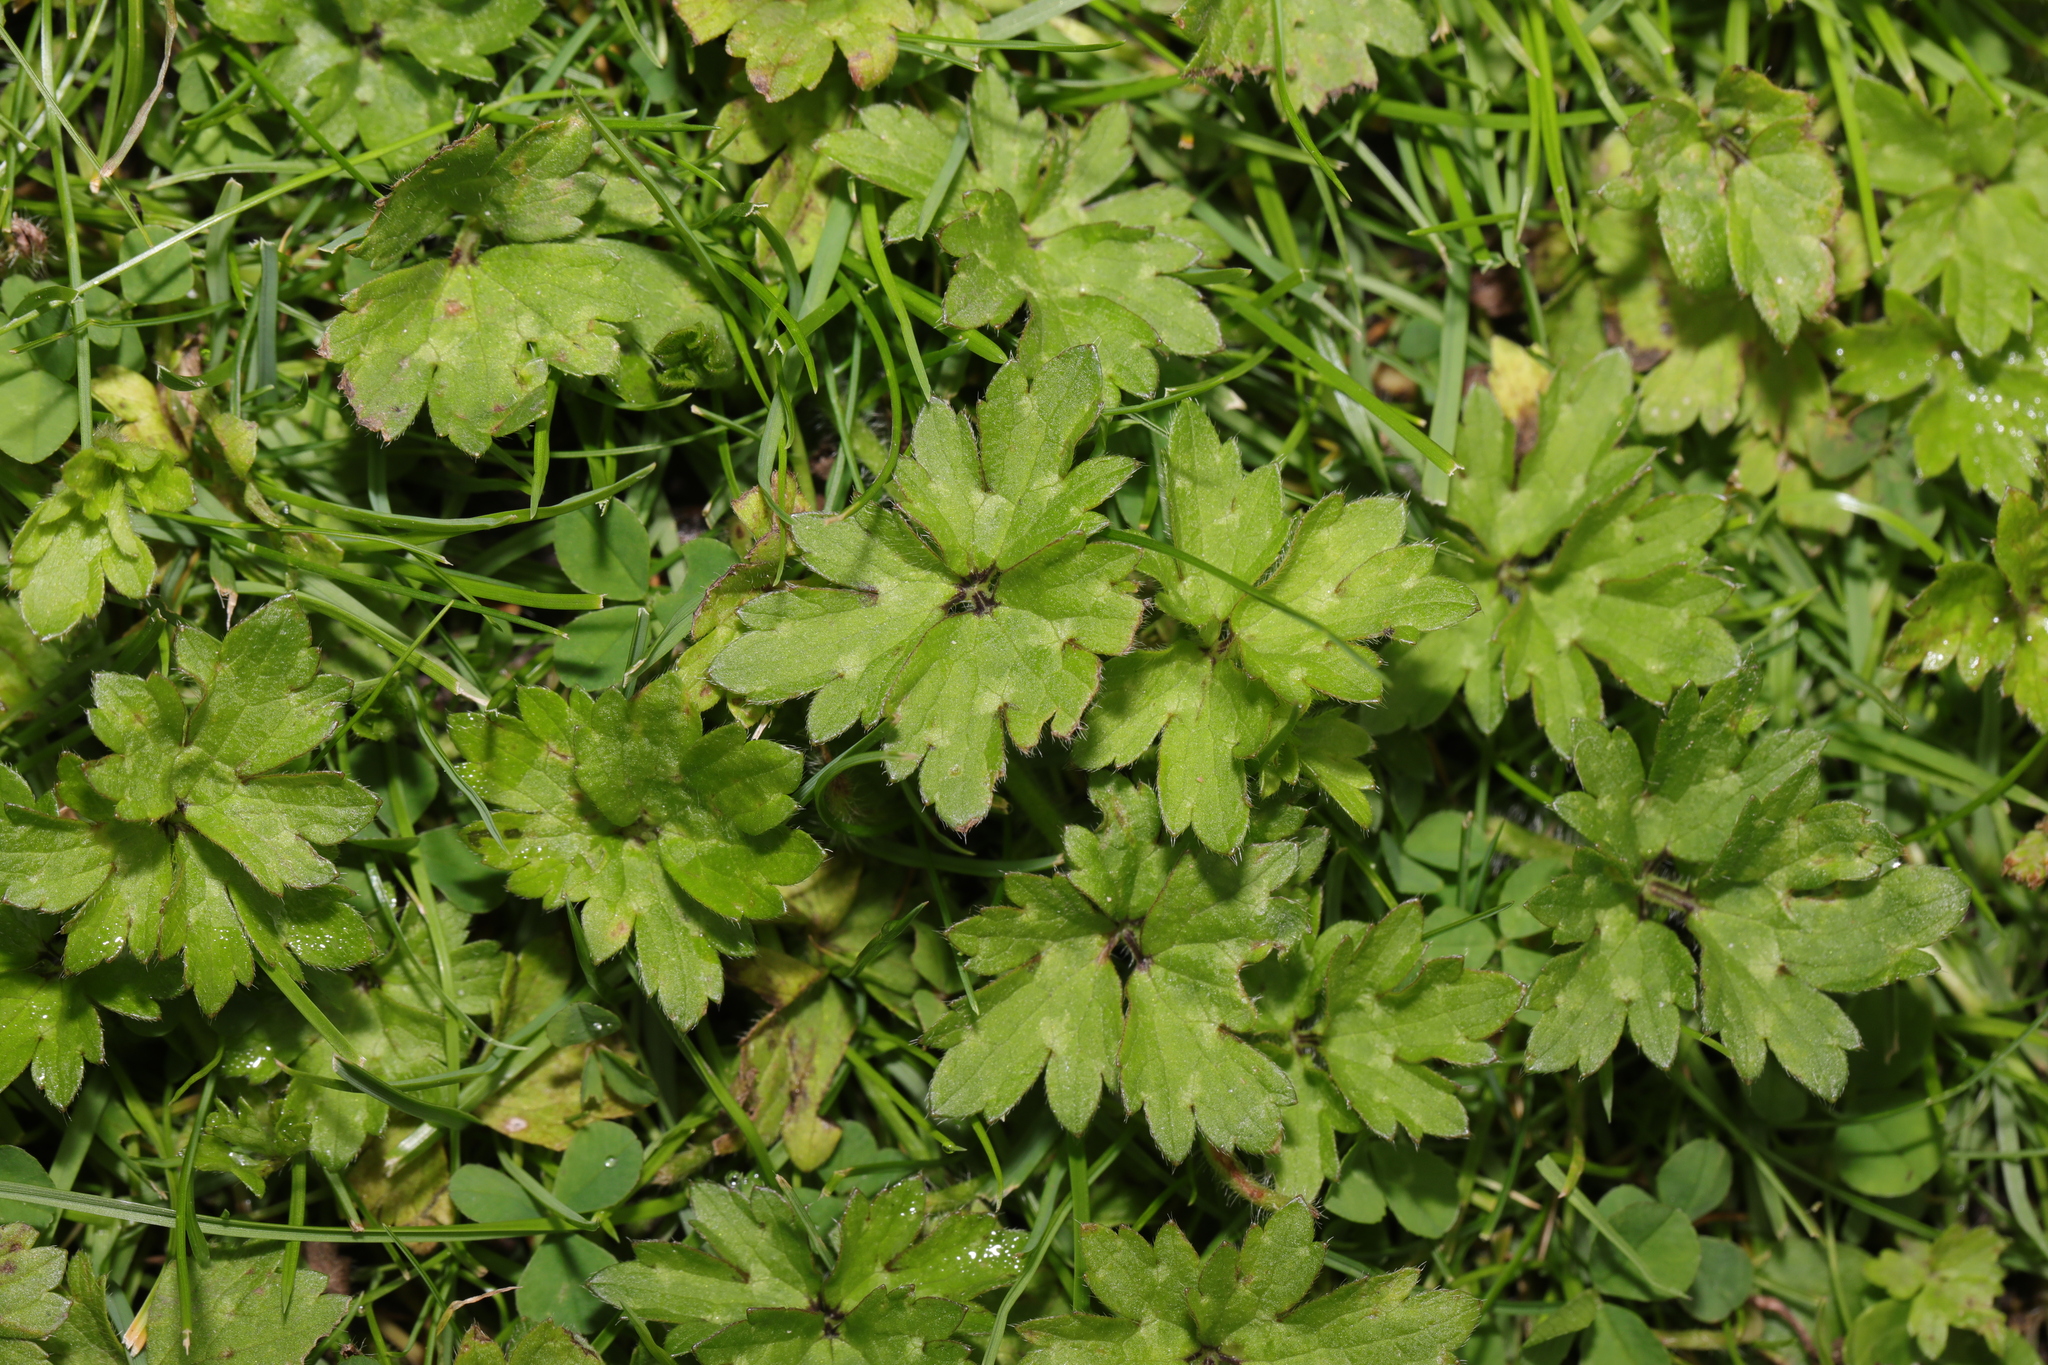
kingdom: Plantae
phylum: Tracheophyta
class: Magnoliopsida
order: Ranunculales
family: Ranunculaceae
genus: Ranunculus
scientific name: Ranunculus repens
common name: Creeping buttercup
